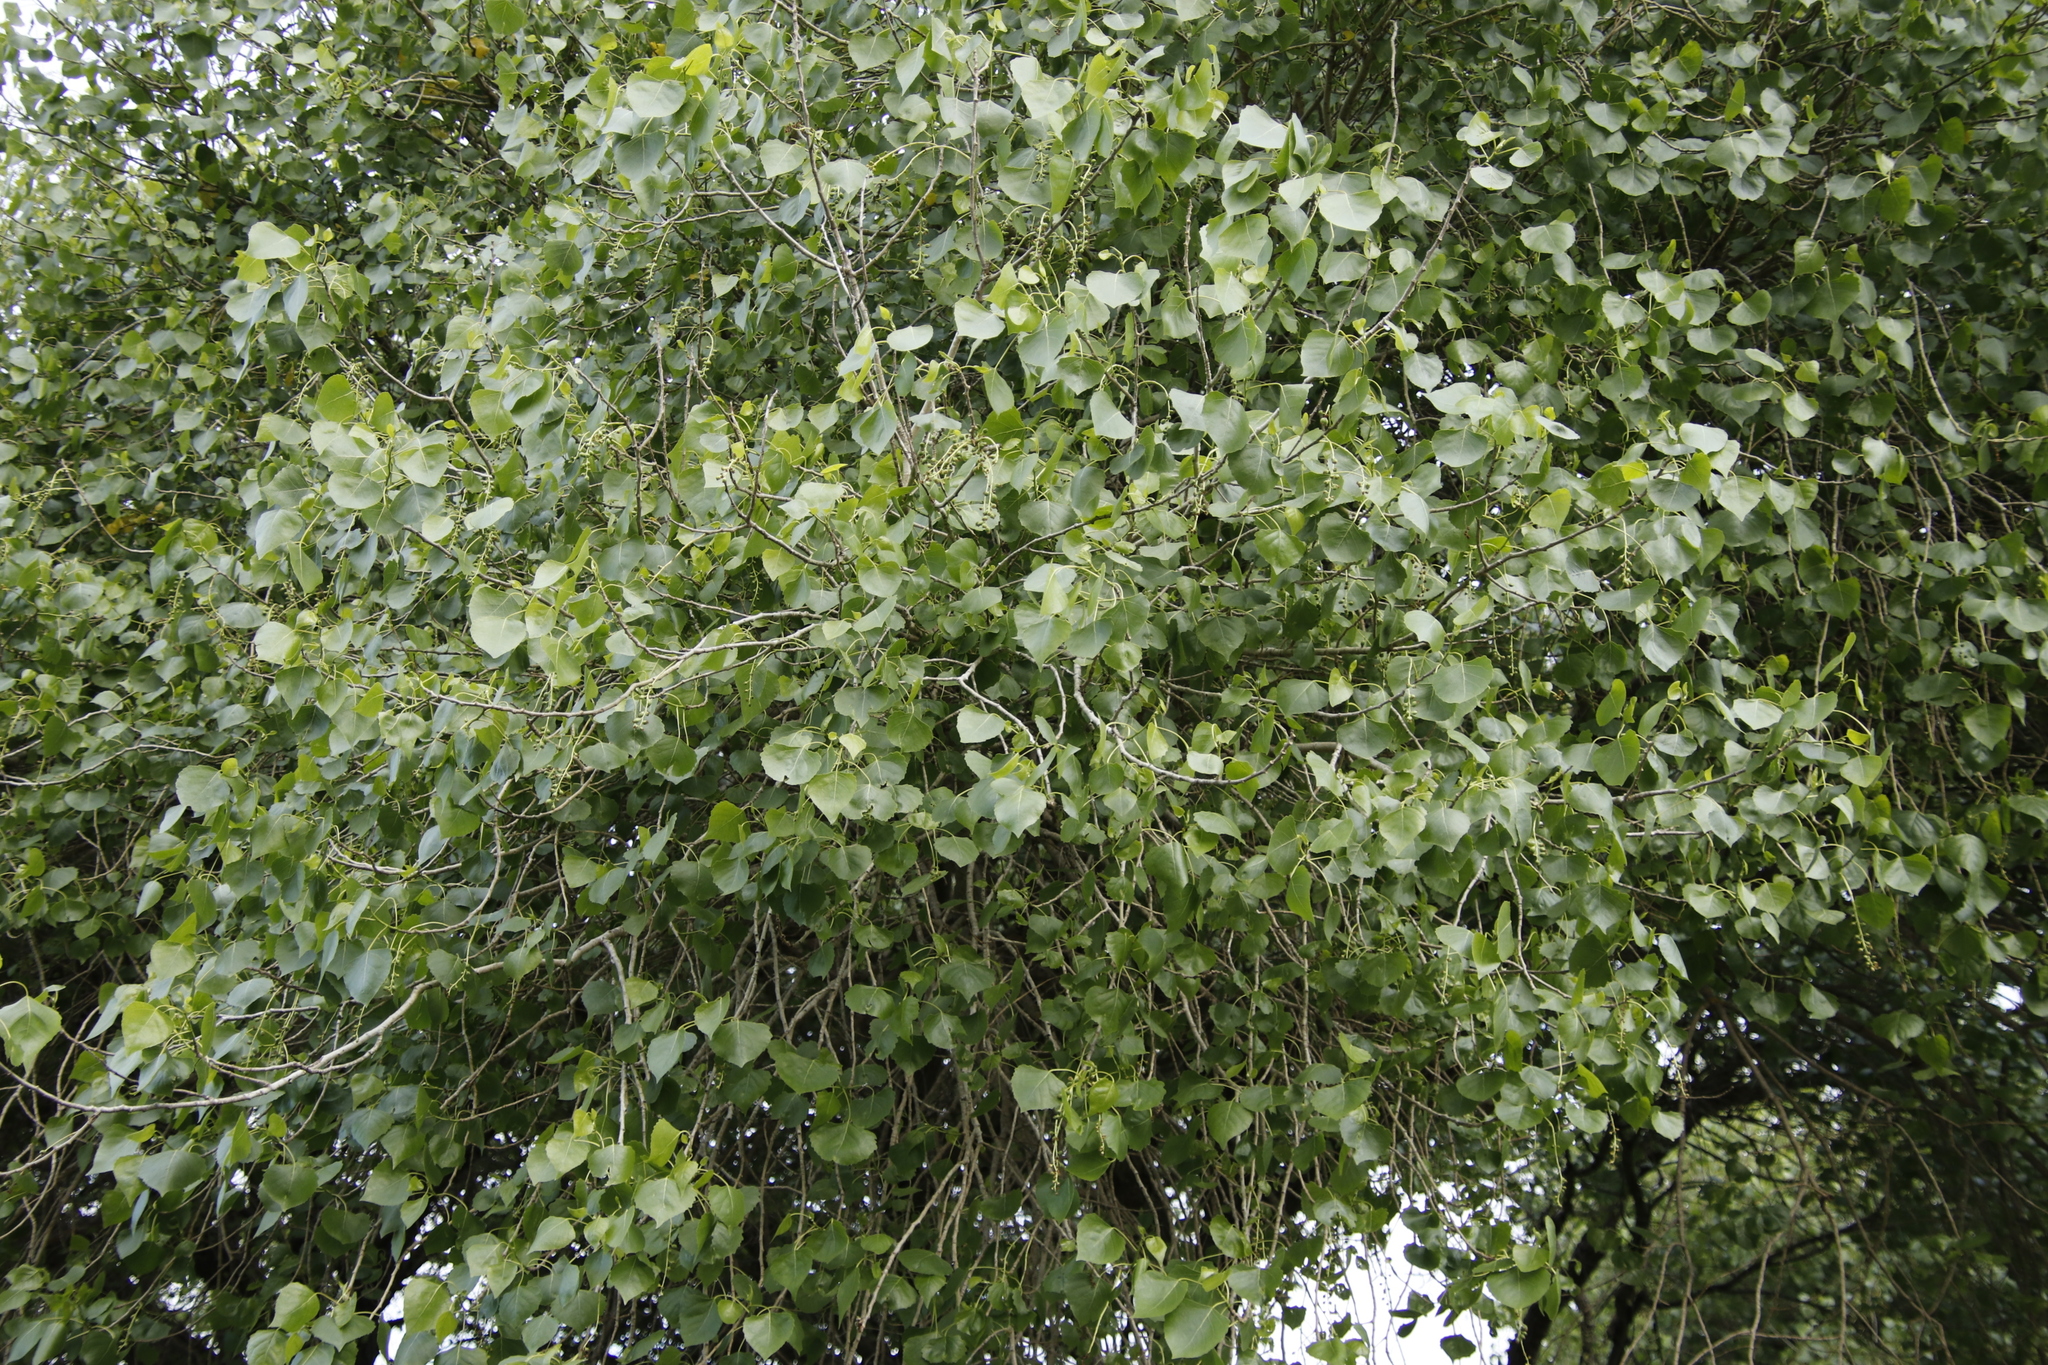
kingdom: Plantae
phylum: Tracheophyta
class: Magnoliopsida
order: Malpighiales
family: Salicaceae
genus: Populus
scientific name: Populus deltoides
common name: Eastern cottonwood
